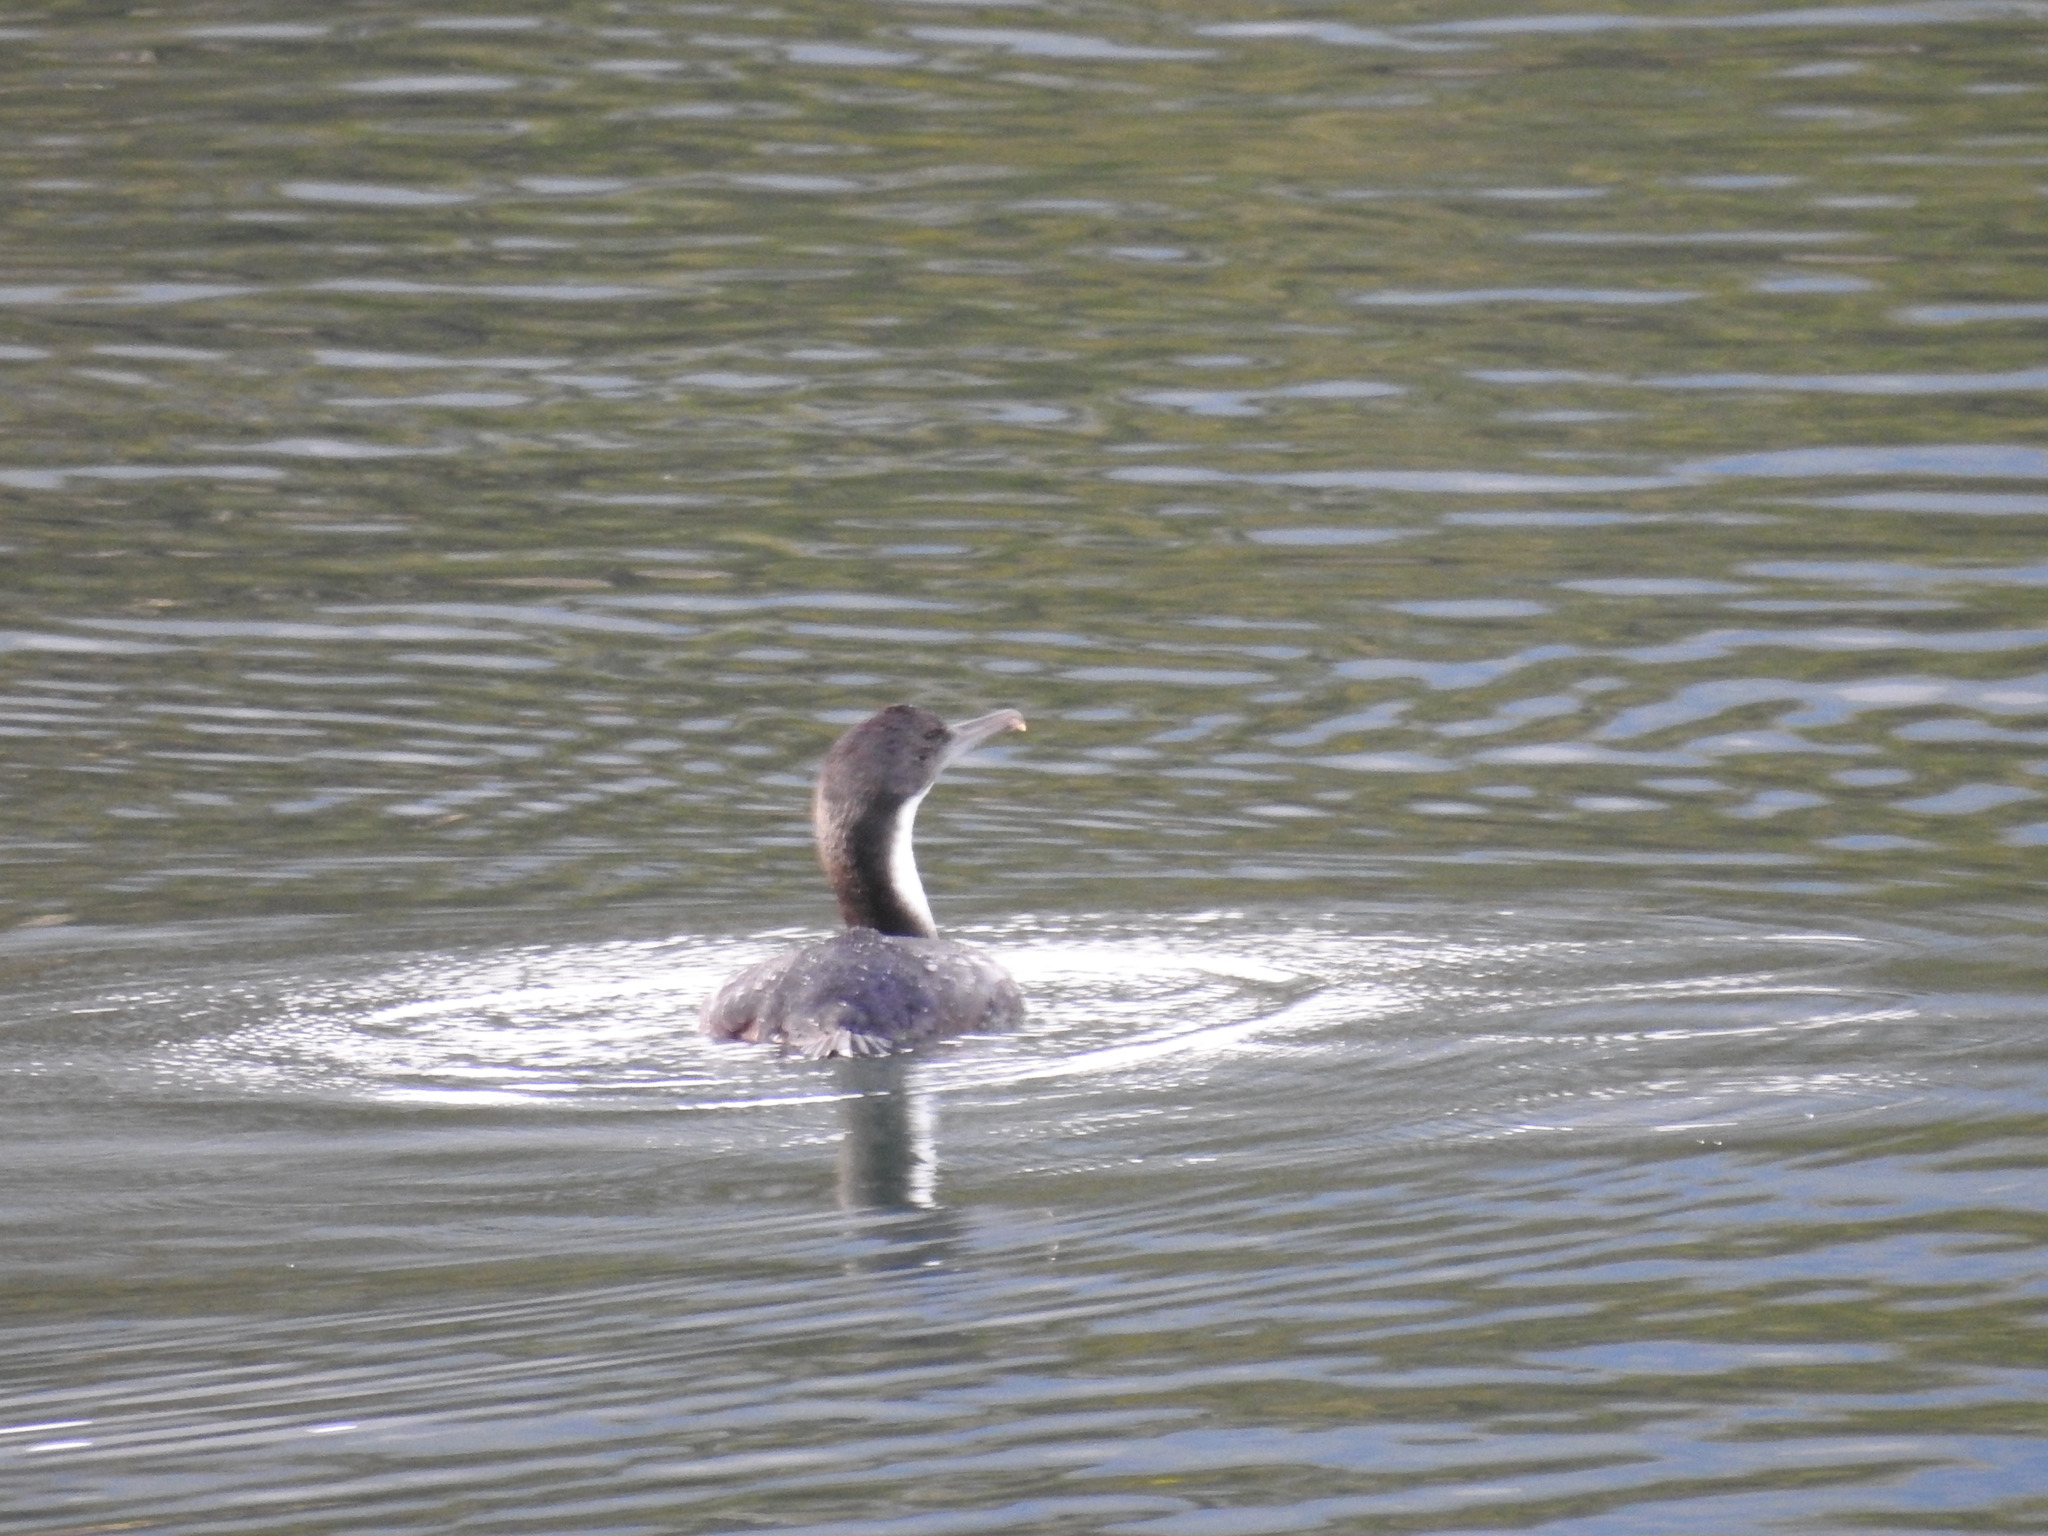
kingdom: Animalia
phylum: Chordata
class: Aves
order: Suliformes
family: Phalacrocoracidae
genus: Leucocarbo
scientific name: Leucocarbo atriceps
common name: Imperial shag
